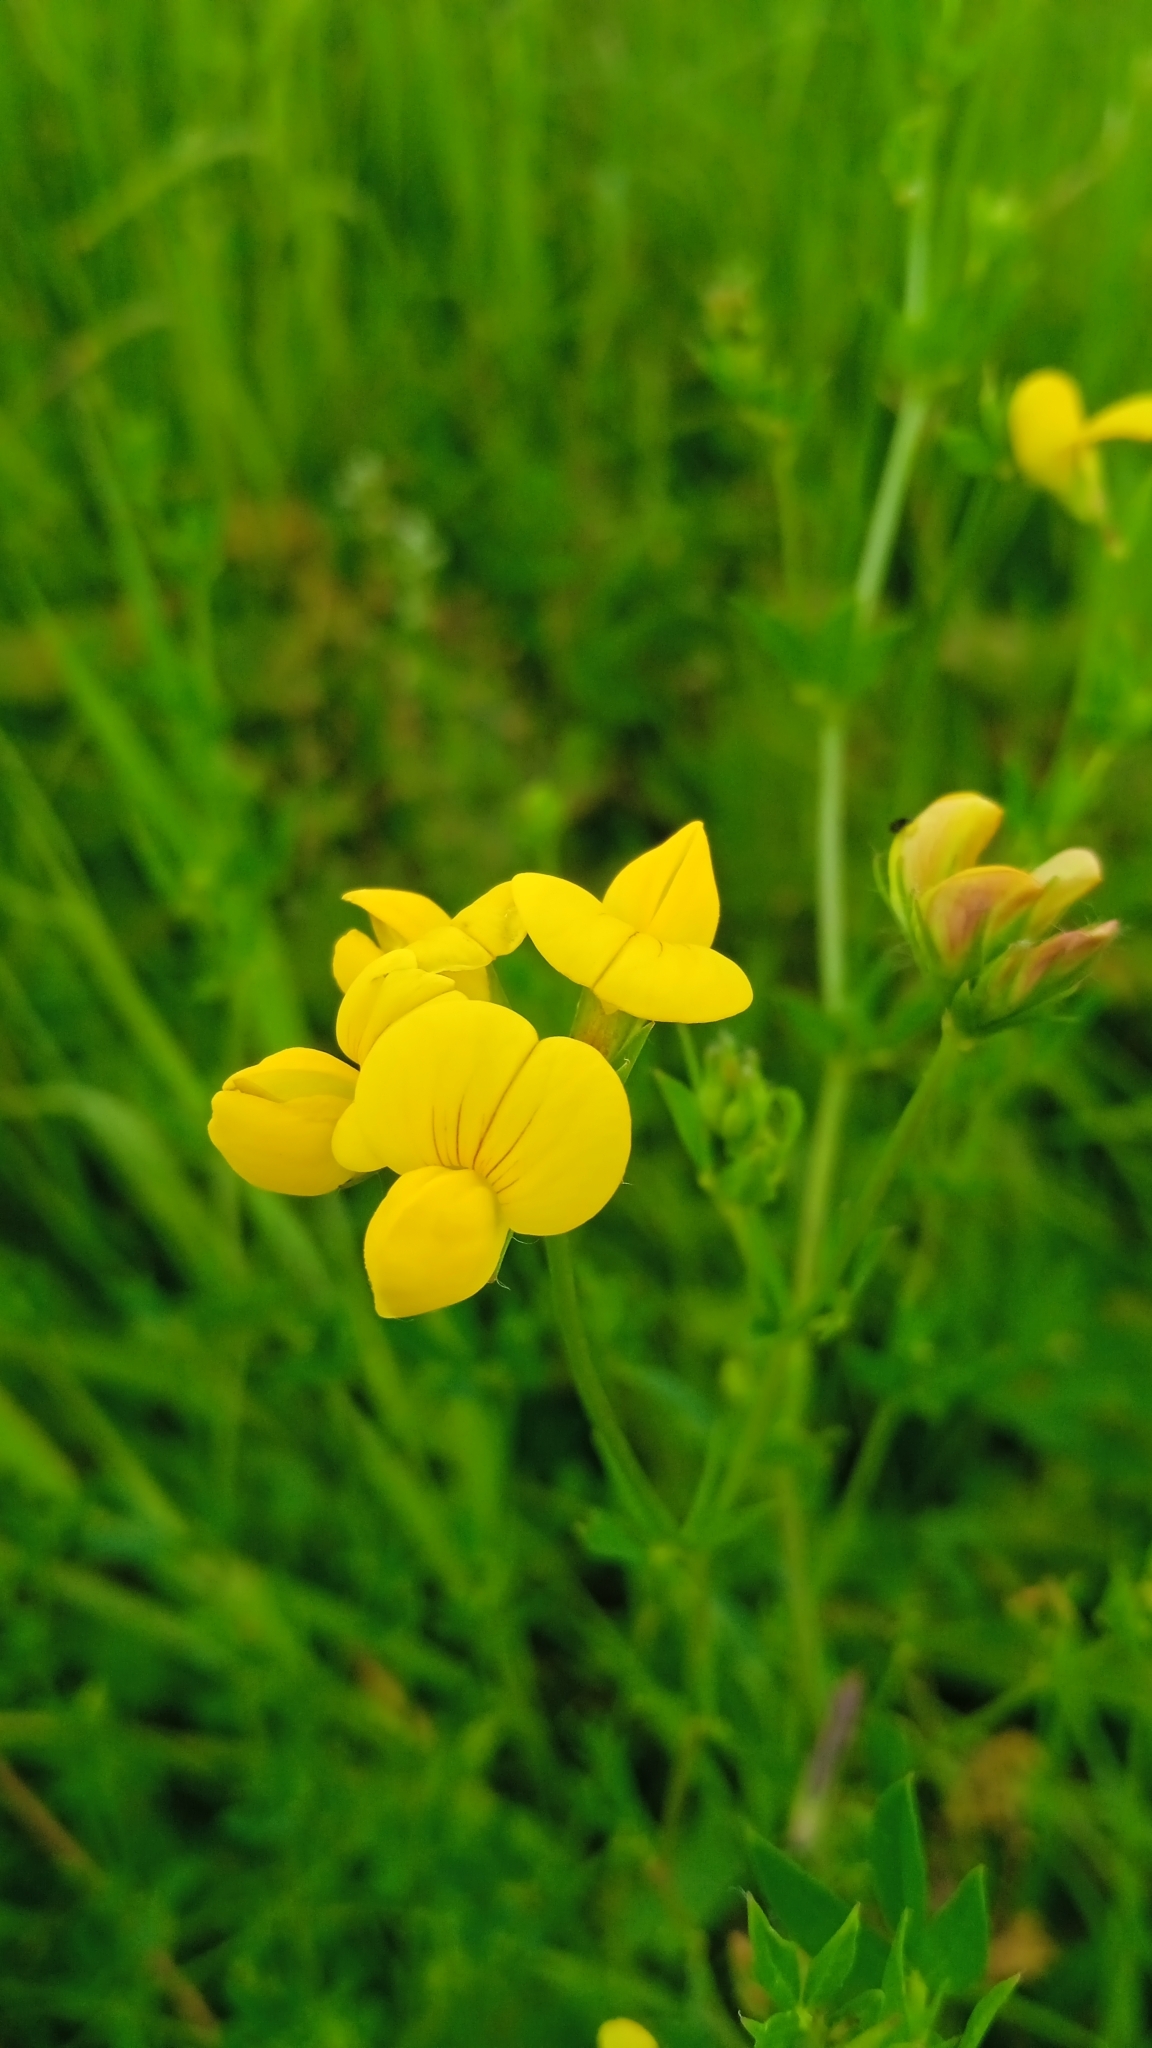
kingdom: Plantae
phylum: Tracheophyta
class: Magnoliopsida
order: Fabales
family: Fabaceae
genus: Lotus
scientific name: Lotus corniculatus
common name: Common bird's-foot-trefoil
